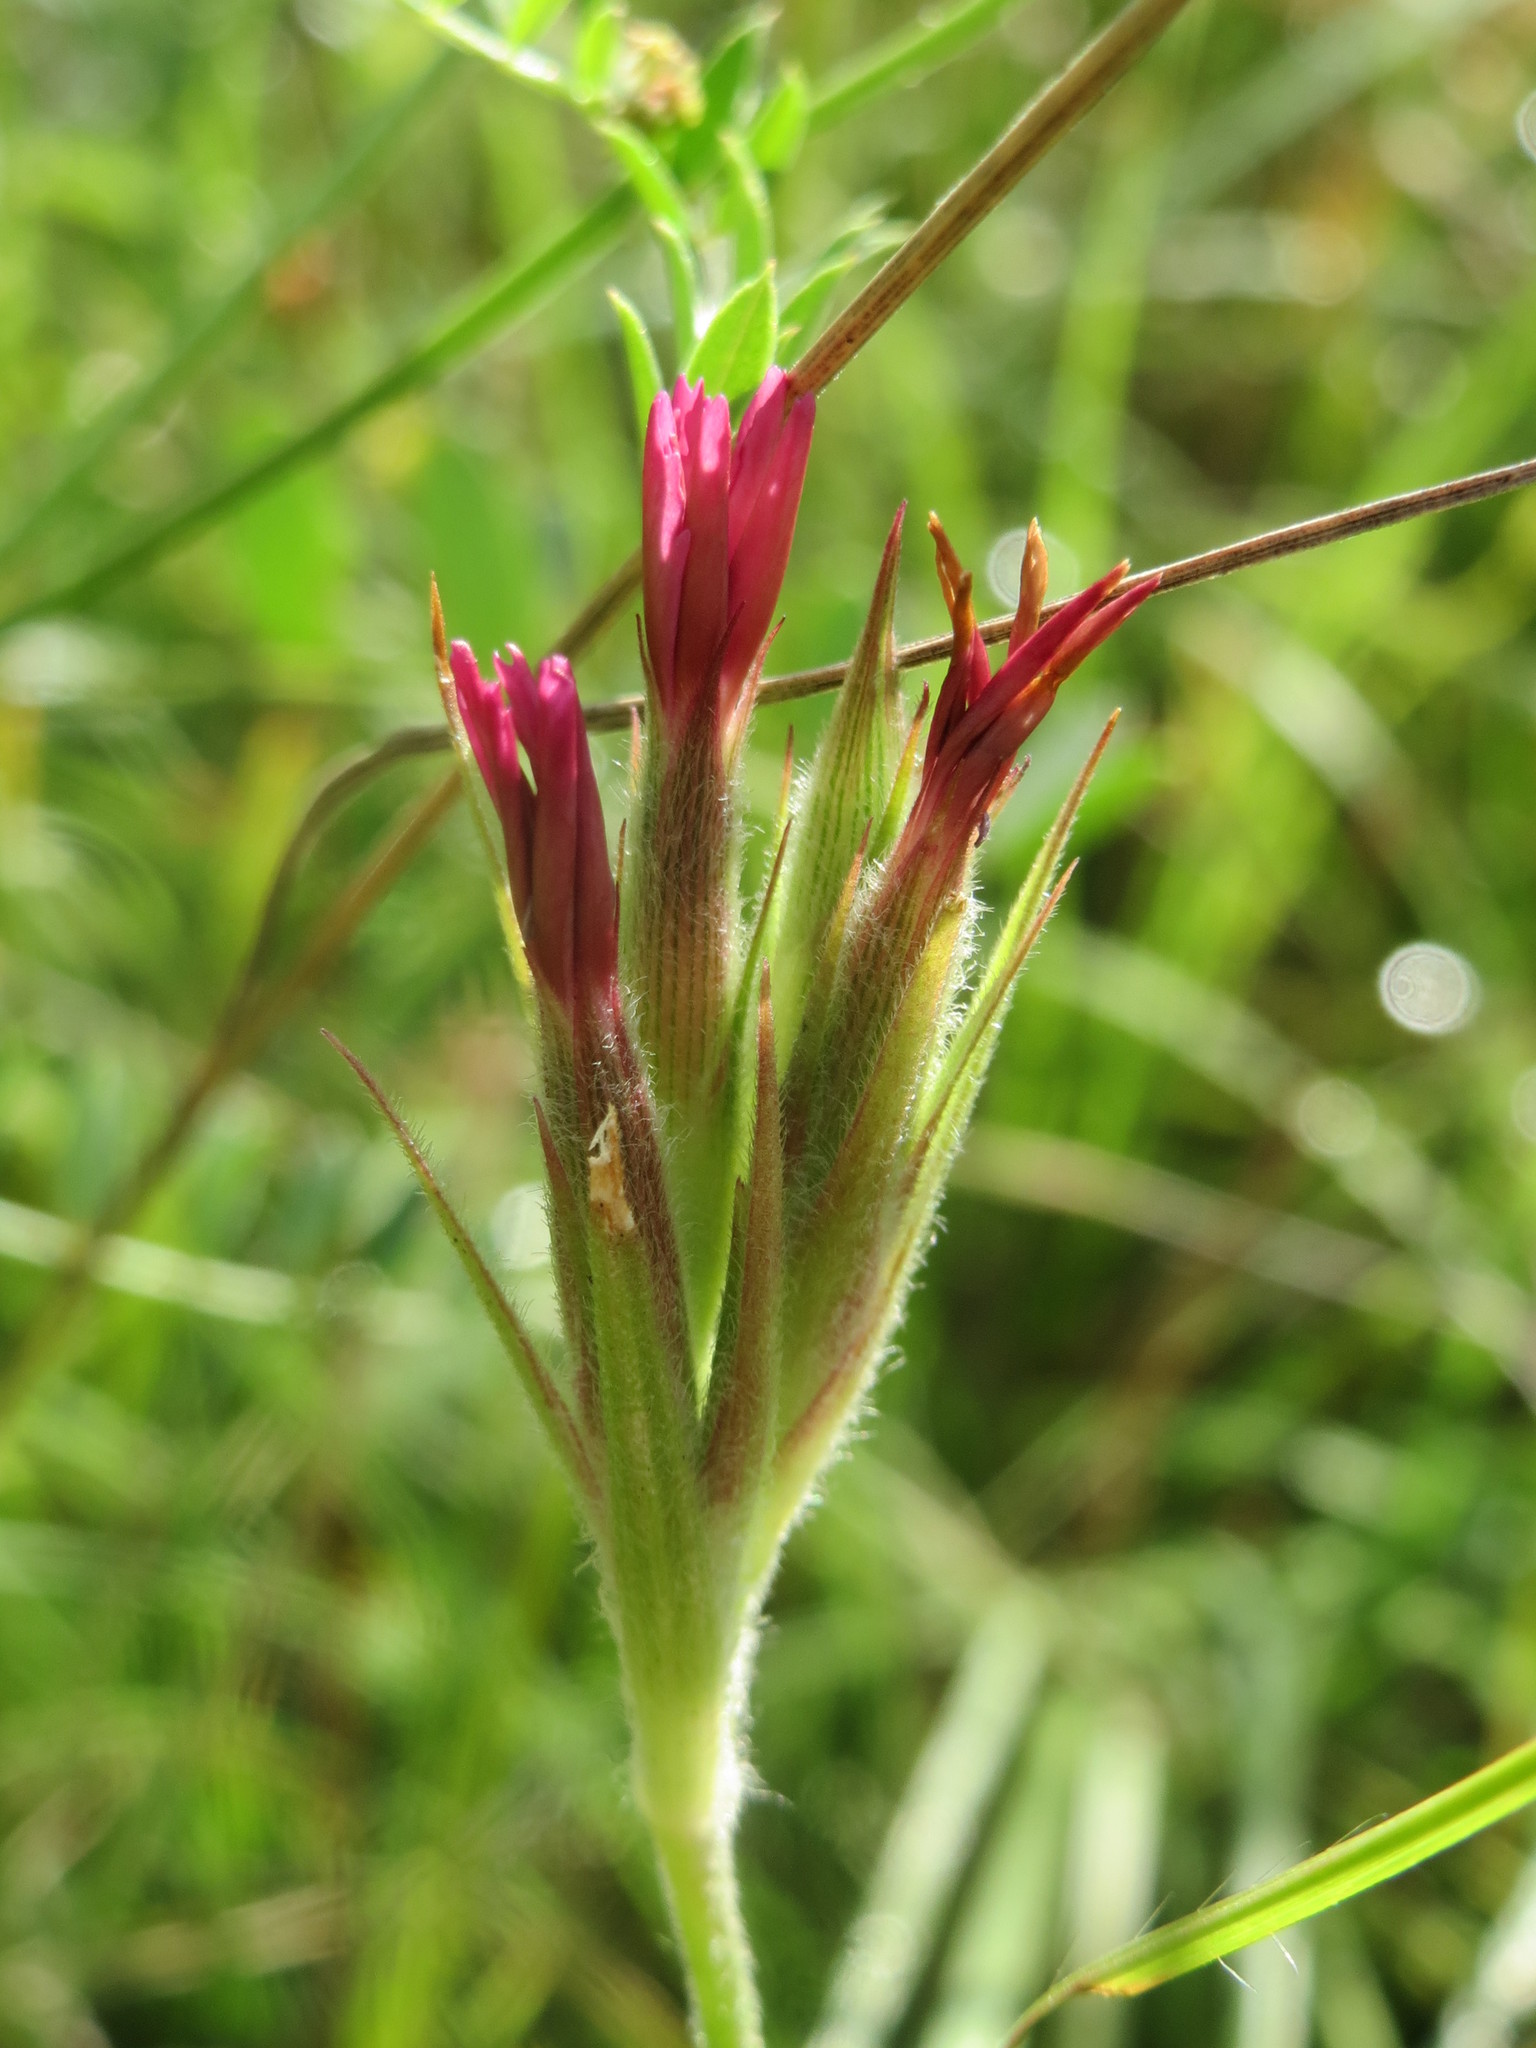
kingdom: Plantae
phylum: Tracheophyta
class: Magnoliopsida
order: Caryophyllales
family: Caryophyllaceae
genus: Dianthus
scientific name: Dianthus armeria
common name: Deptford pink
